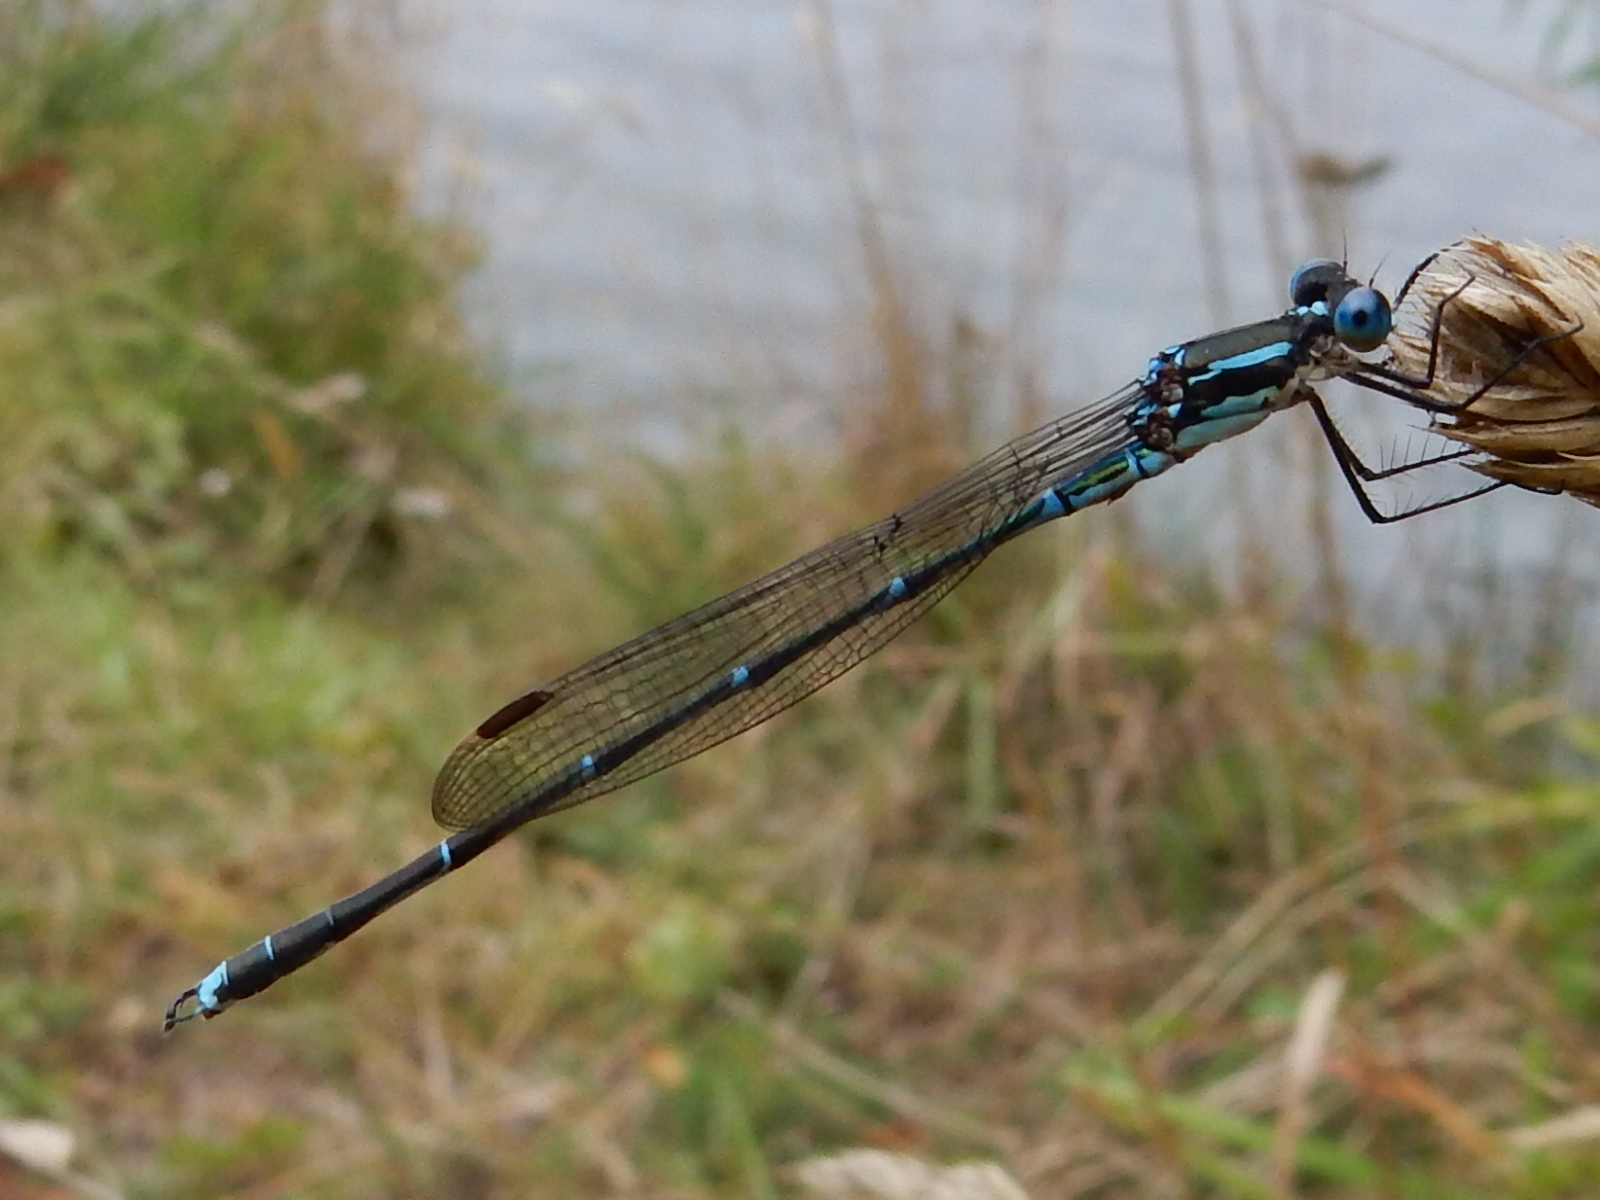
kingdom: Animalia
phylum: Arthropoda
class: Insecta
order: Odonata
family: Lestidae
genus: Austrolestes
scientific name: Austrolestes colensonis
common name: Blue damselfly
